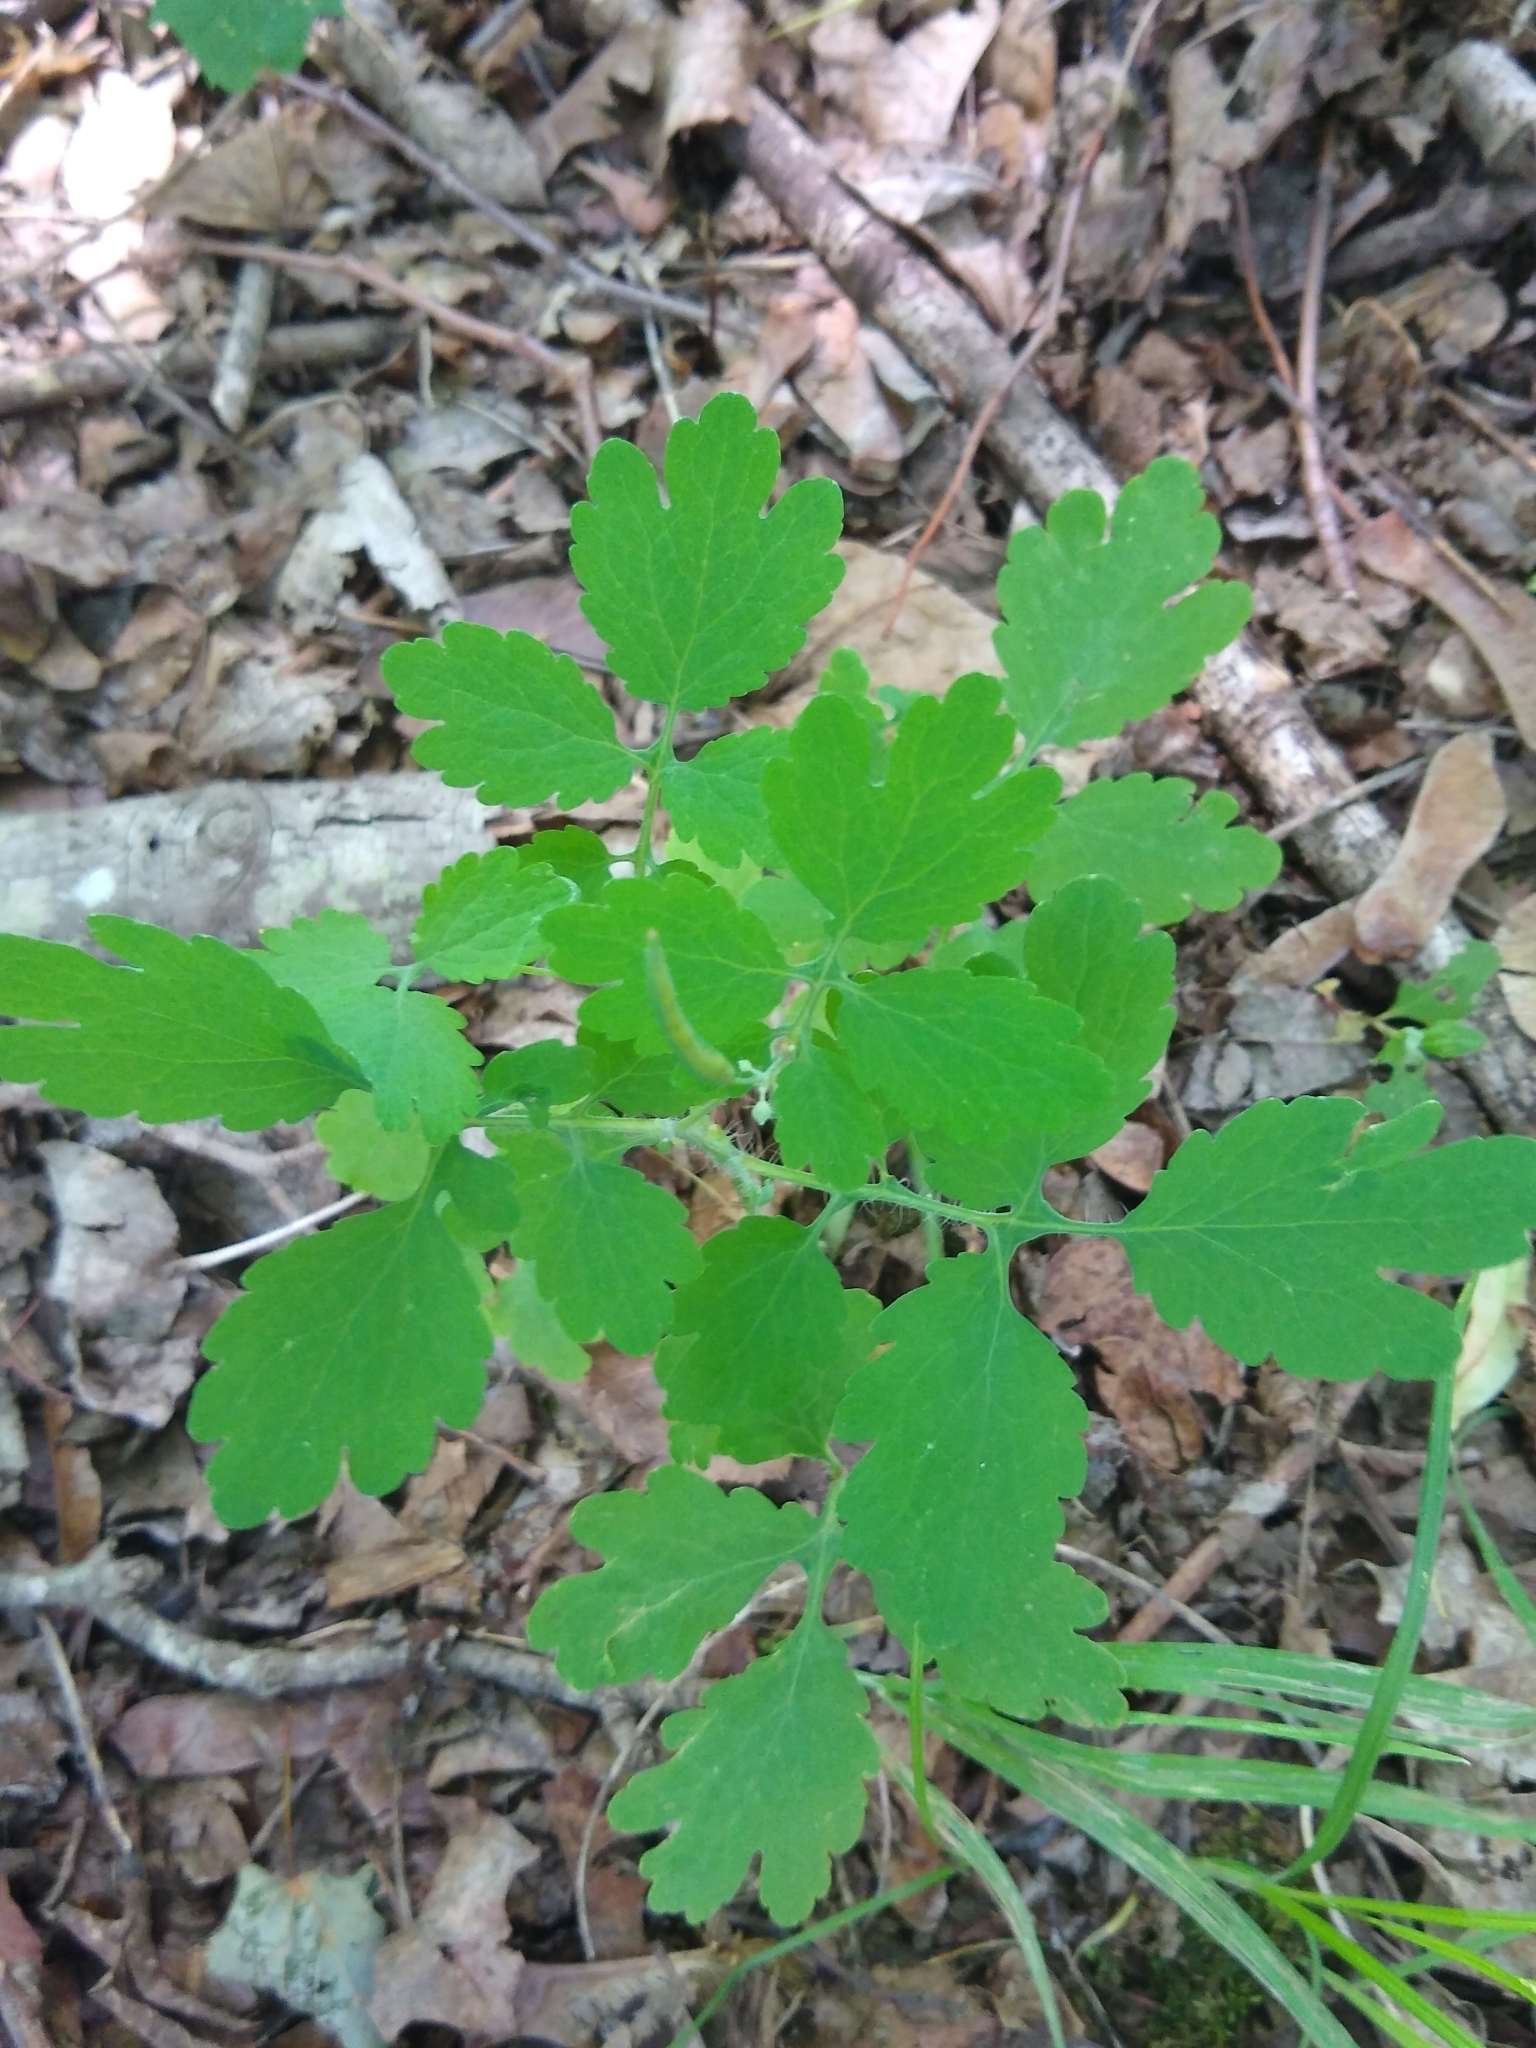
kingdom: Plantae
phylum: Tracheophyta
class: Magnoliopsida
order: Ranunculales
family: Papaveraceae
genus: Chelidonium
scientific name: Chelidonium majus
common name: Greater celandine
